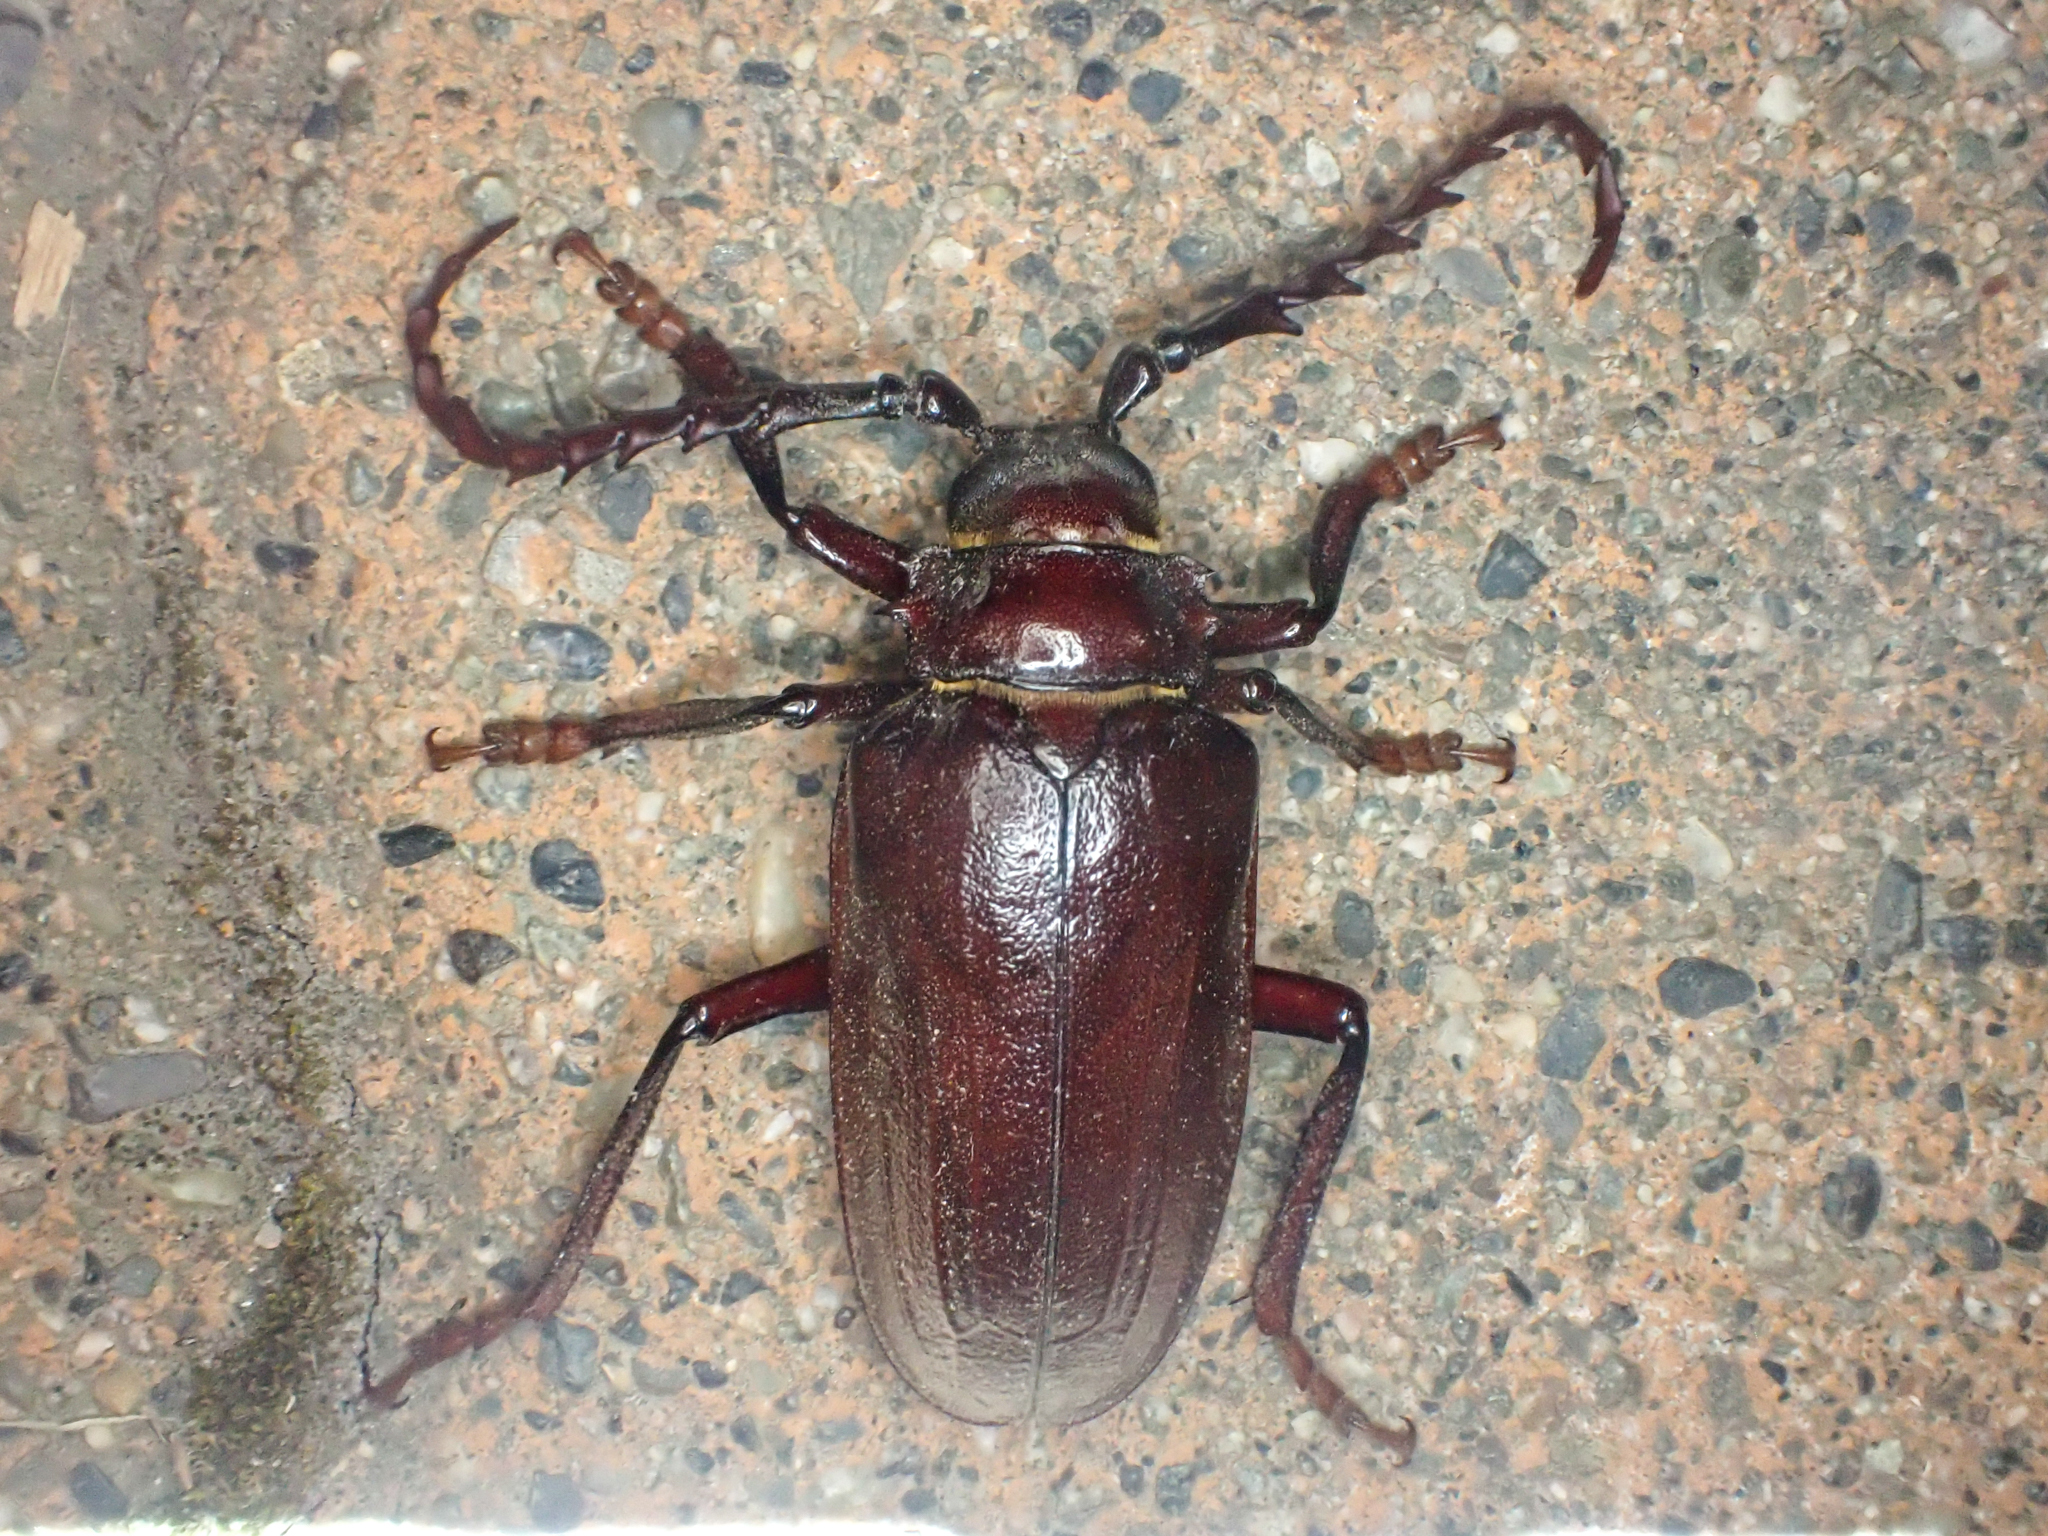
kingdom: Animalia
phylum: Arthropoda
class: Insecta
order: Coleoptera
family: Cerambycidae
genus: Prionus
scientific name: Prionus californicus
